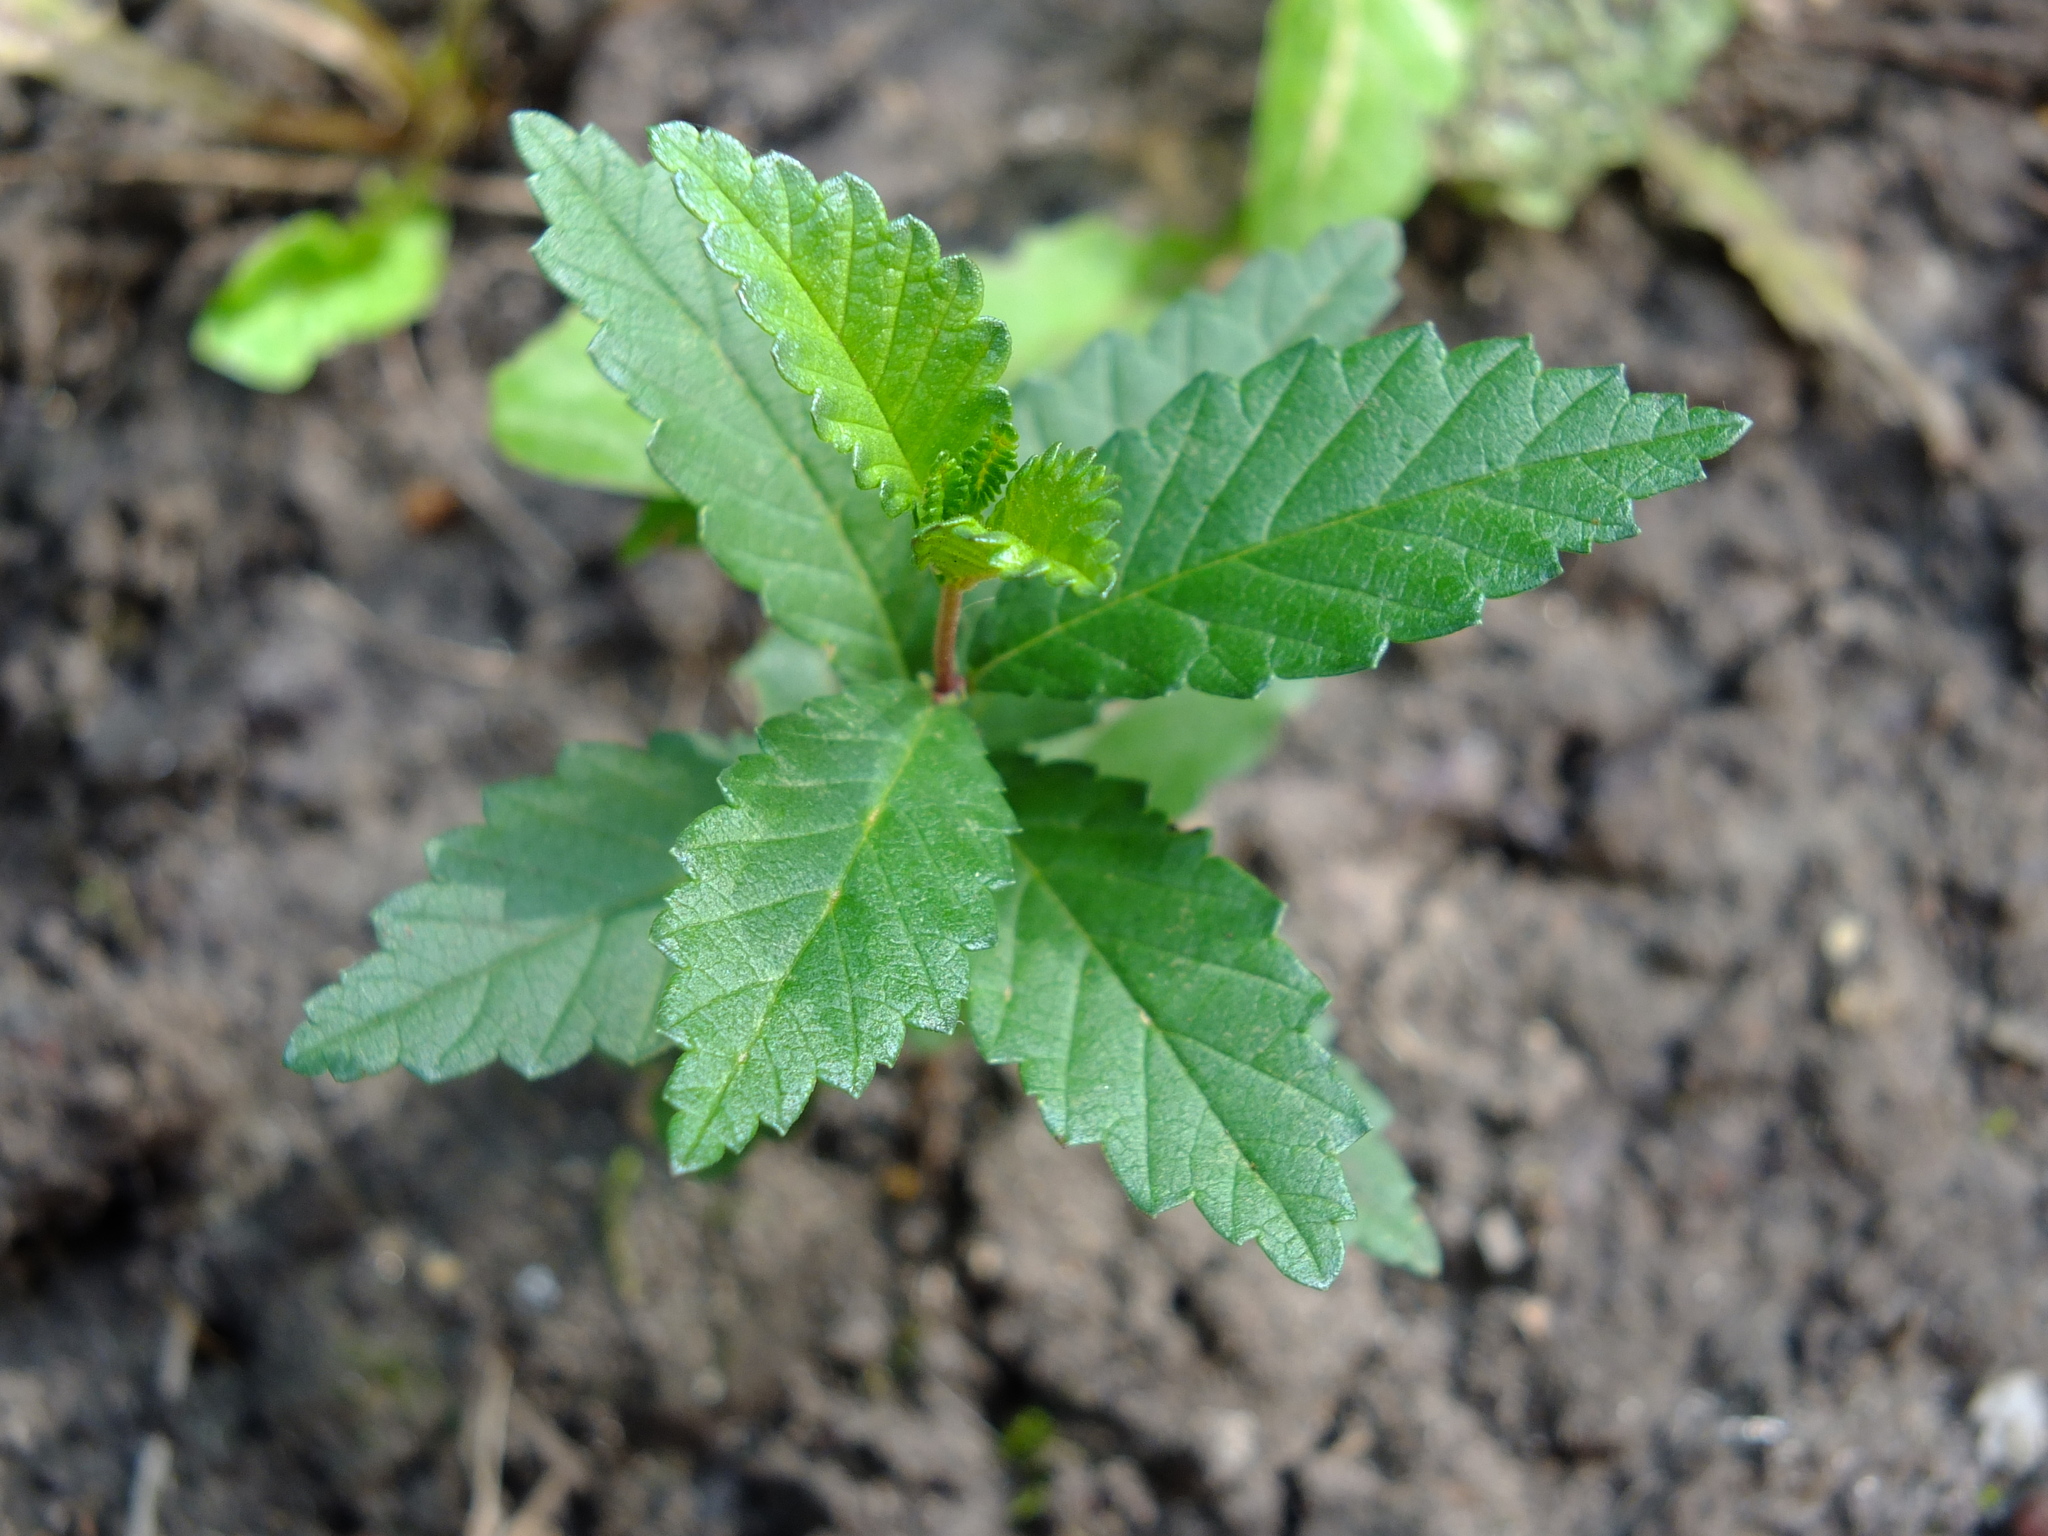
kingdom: Plantae
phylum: Tracheophyta
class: Magnoliopsida
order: Rosales
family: Ulmaceae
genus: Ulmus
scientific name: Ulmus pumila
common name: Siberian elm
